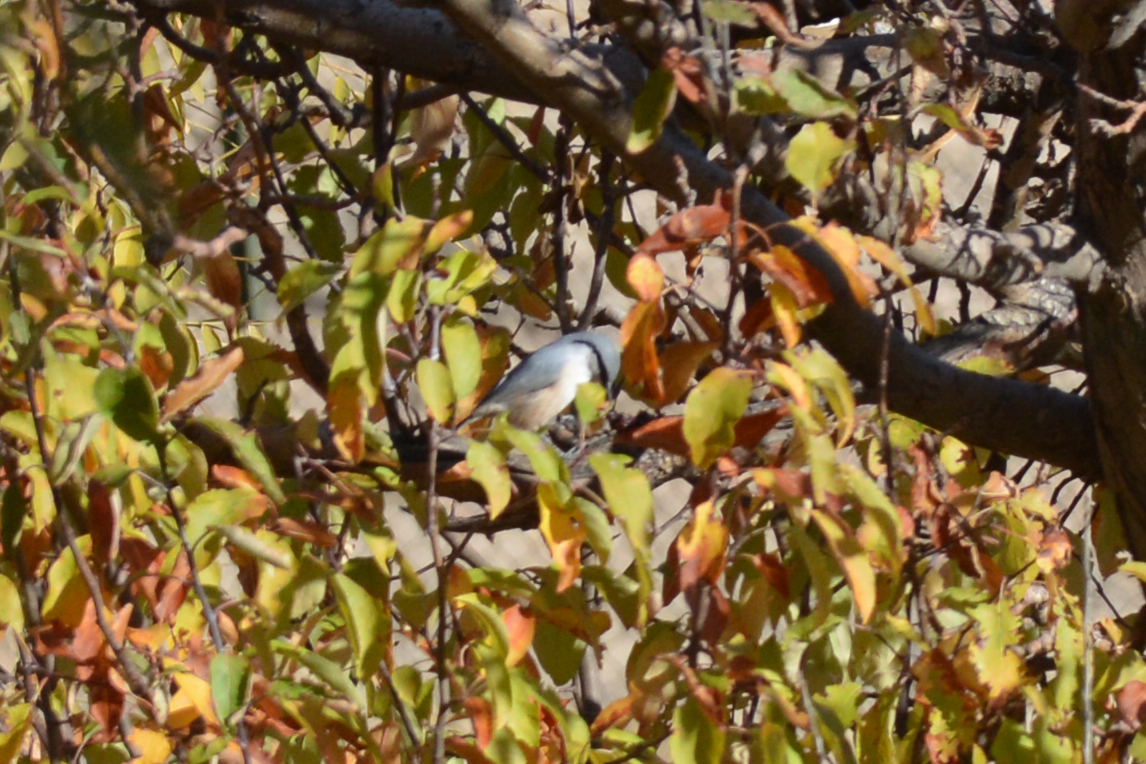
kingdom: Animalia
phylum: Chordata
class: Aves
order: Passeriformes
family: Sittidae
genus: Sitta
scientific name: Sitta neumayer
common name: Western rock nuthatch
